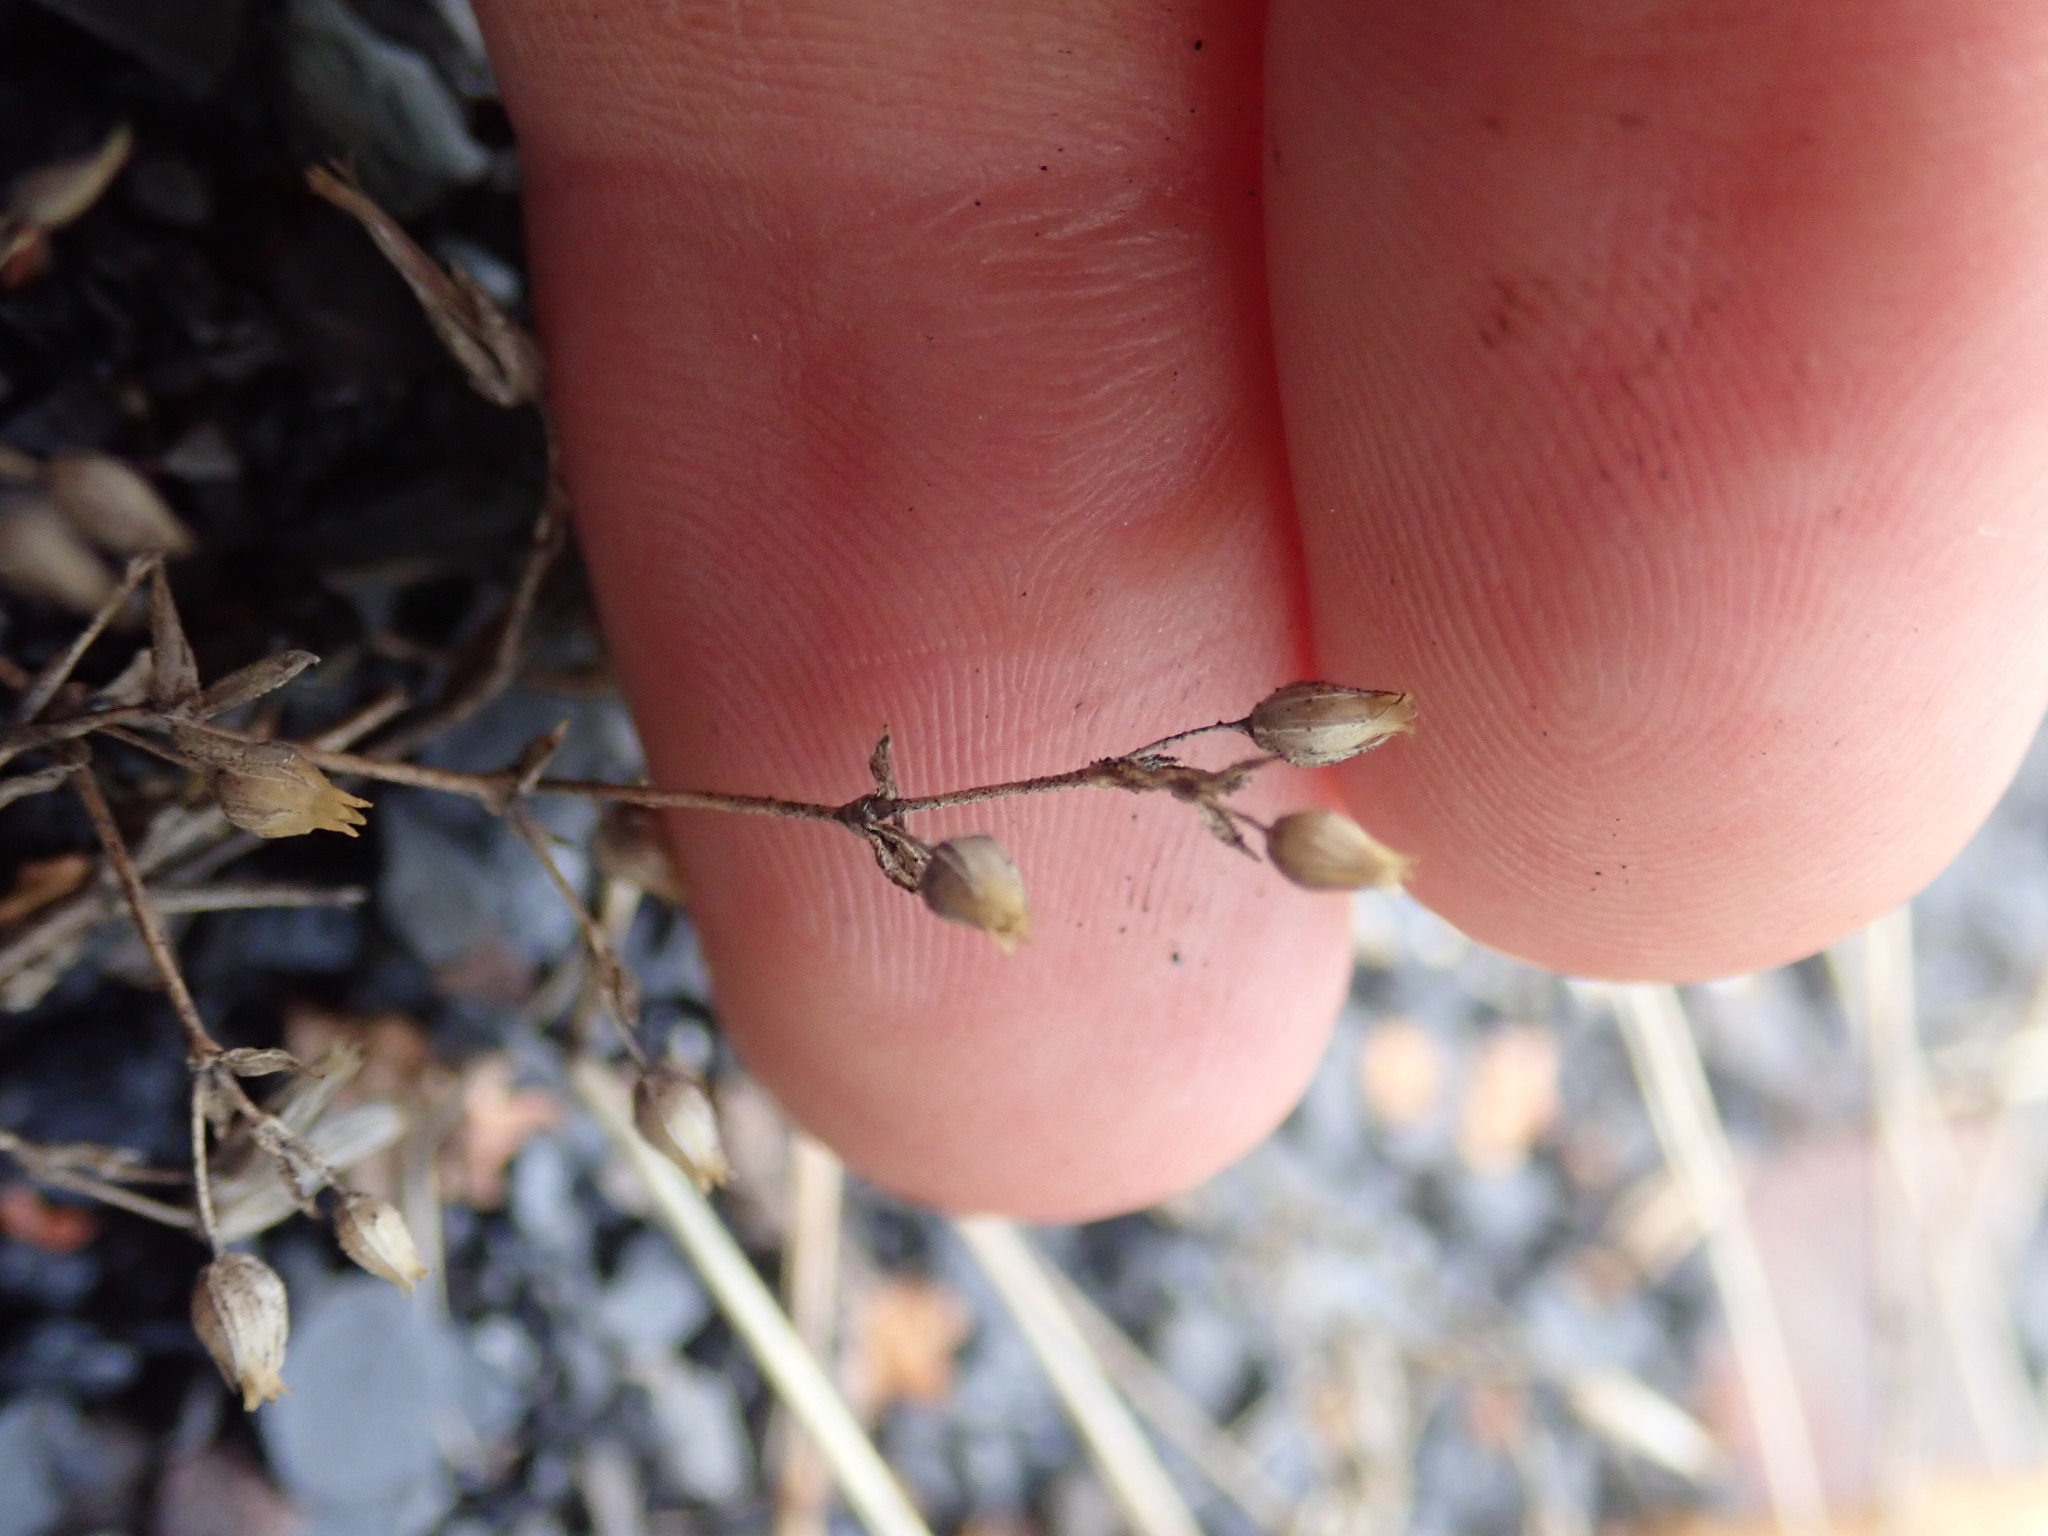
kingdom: Plantae
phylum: Tracheophyta
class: Magnoliopsida
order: Caryophyllales
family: Caryophyllaceae
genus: Arenaria
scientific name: Arenaria serpyllifolia
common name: Thyme-leaved sandwort
